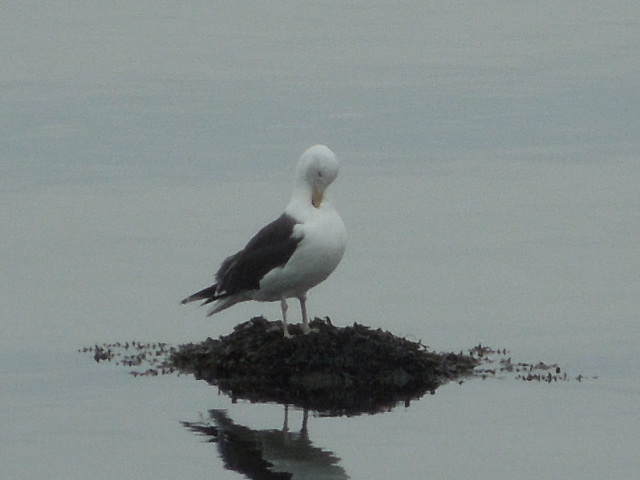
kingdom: Animalia
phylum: Chordata
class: Aves
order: Charadriiformes
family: Laridae
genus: Larus
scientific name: Larus marinus
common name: Great black-backed gull
